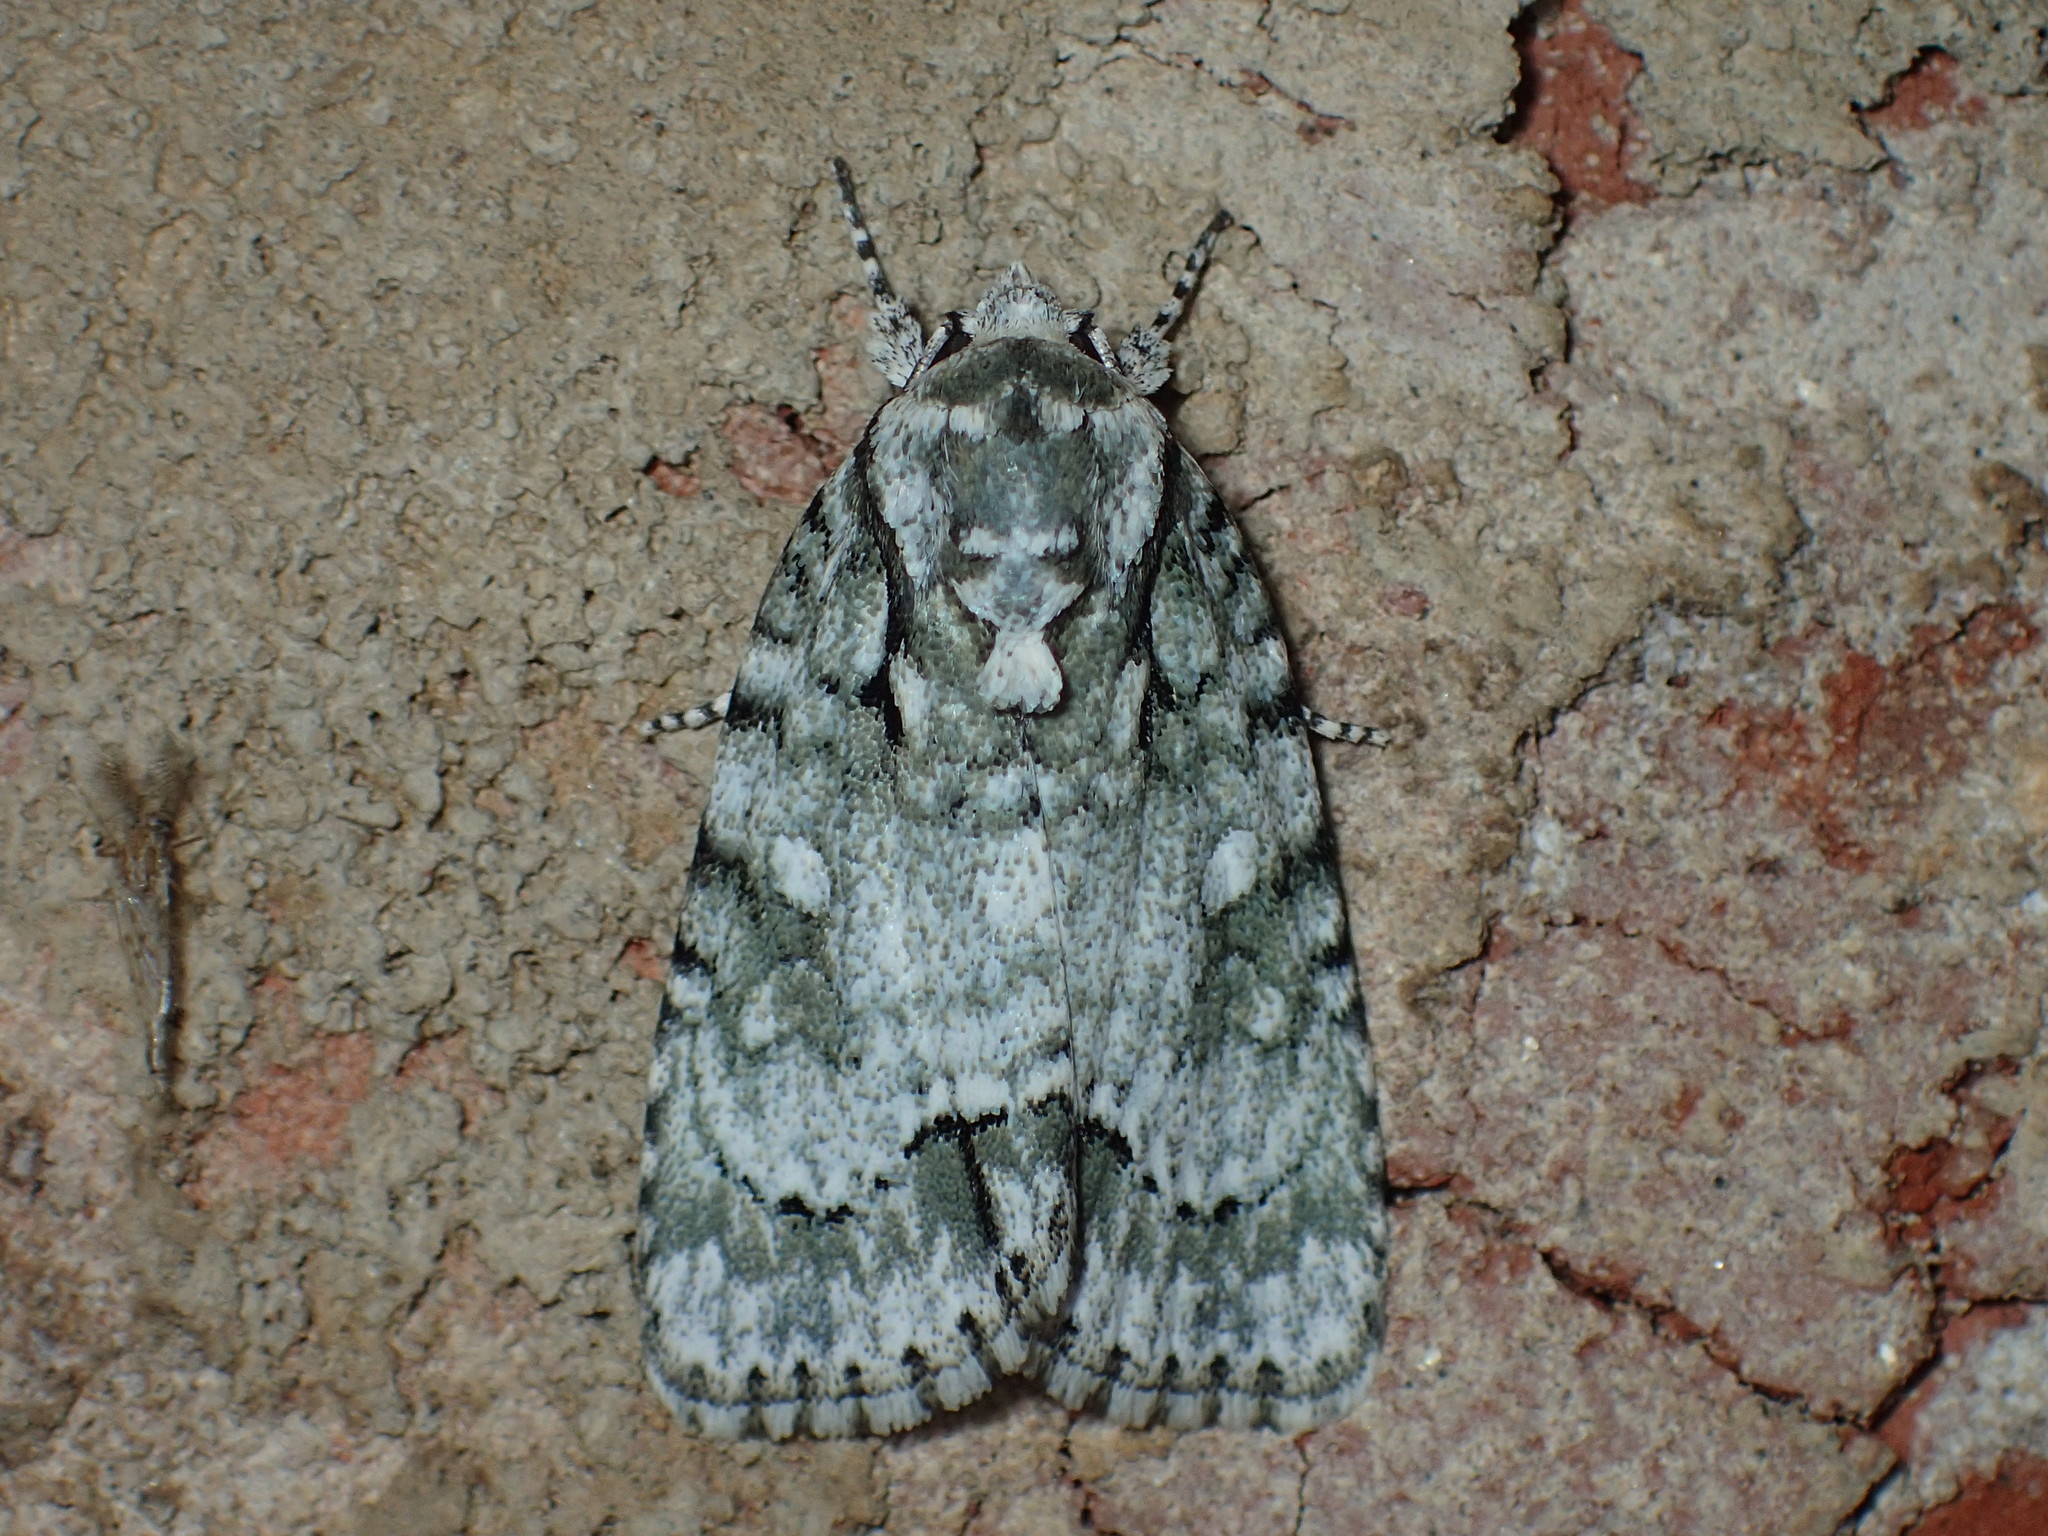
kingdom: Animalia
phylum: Arthropoda
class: Insecta
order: Lepidoptera
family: Noctuidae
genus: Acronicta
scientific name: Acronicta vinnula
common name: Delightful dagger
